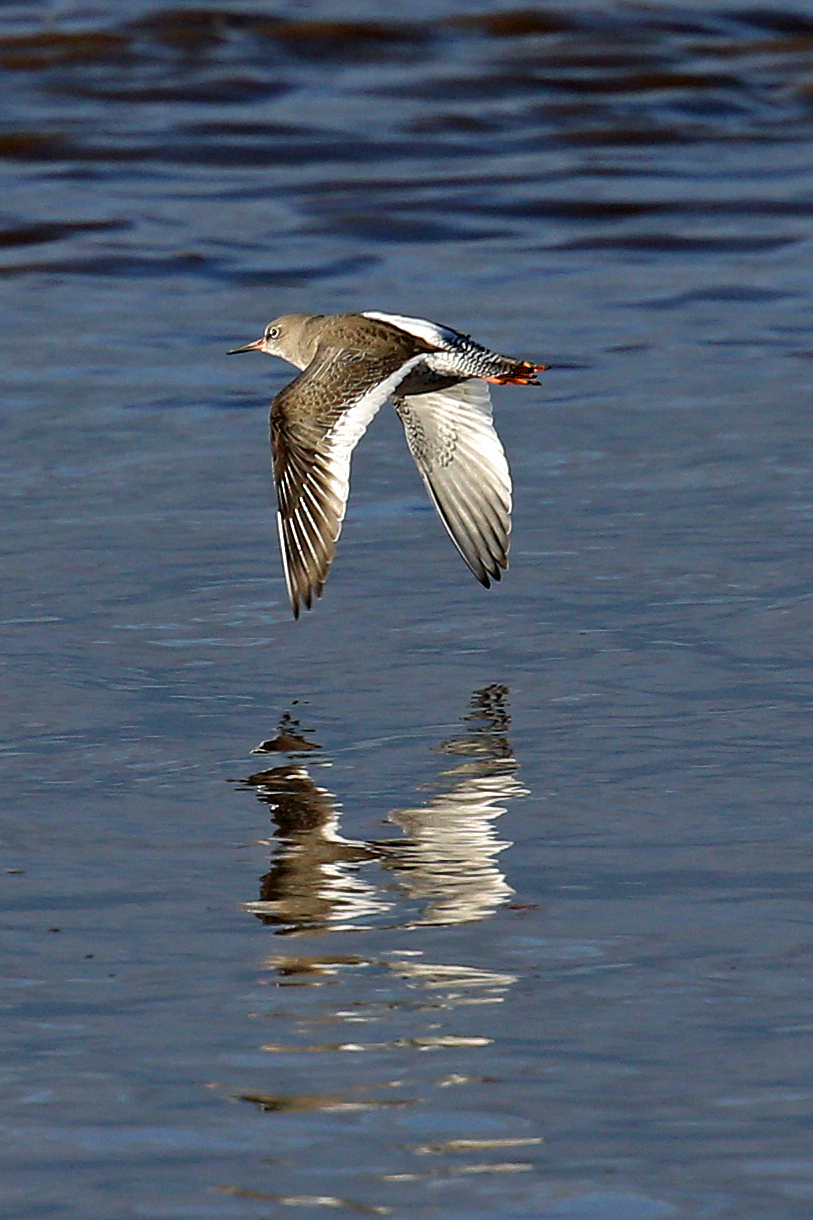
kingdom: Animalia
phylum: Chordata
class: Aves
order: Charadriiformes
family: Scolopacidae
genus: Tringa
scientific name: Tringa totanus
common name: Common redshank
